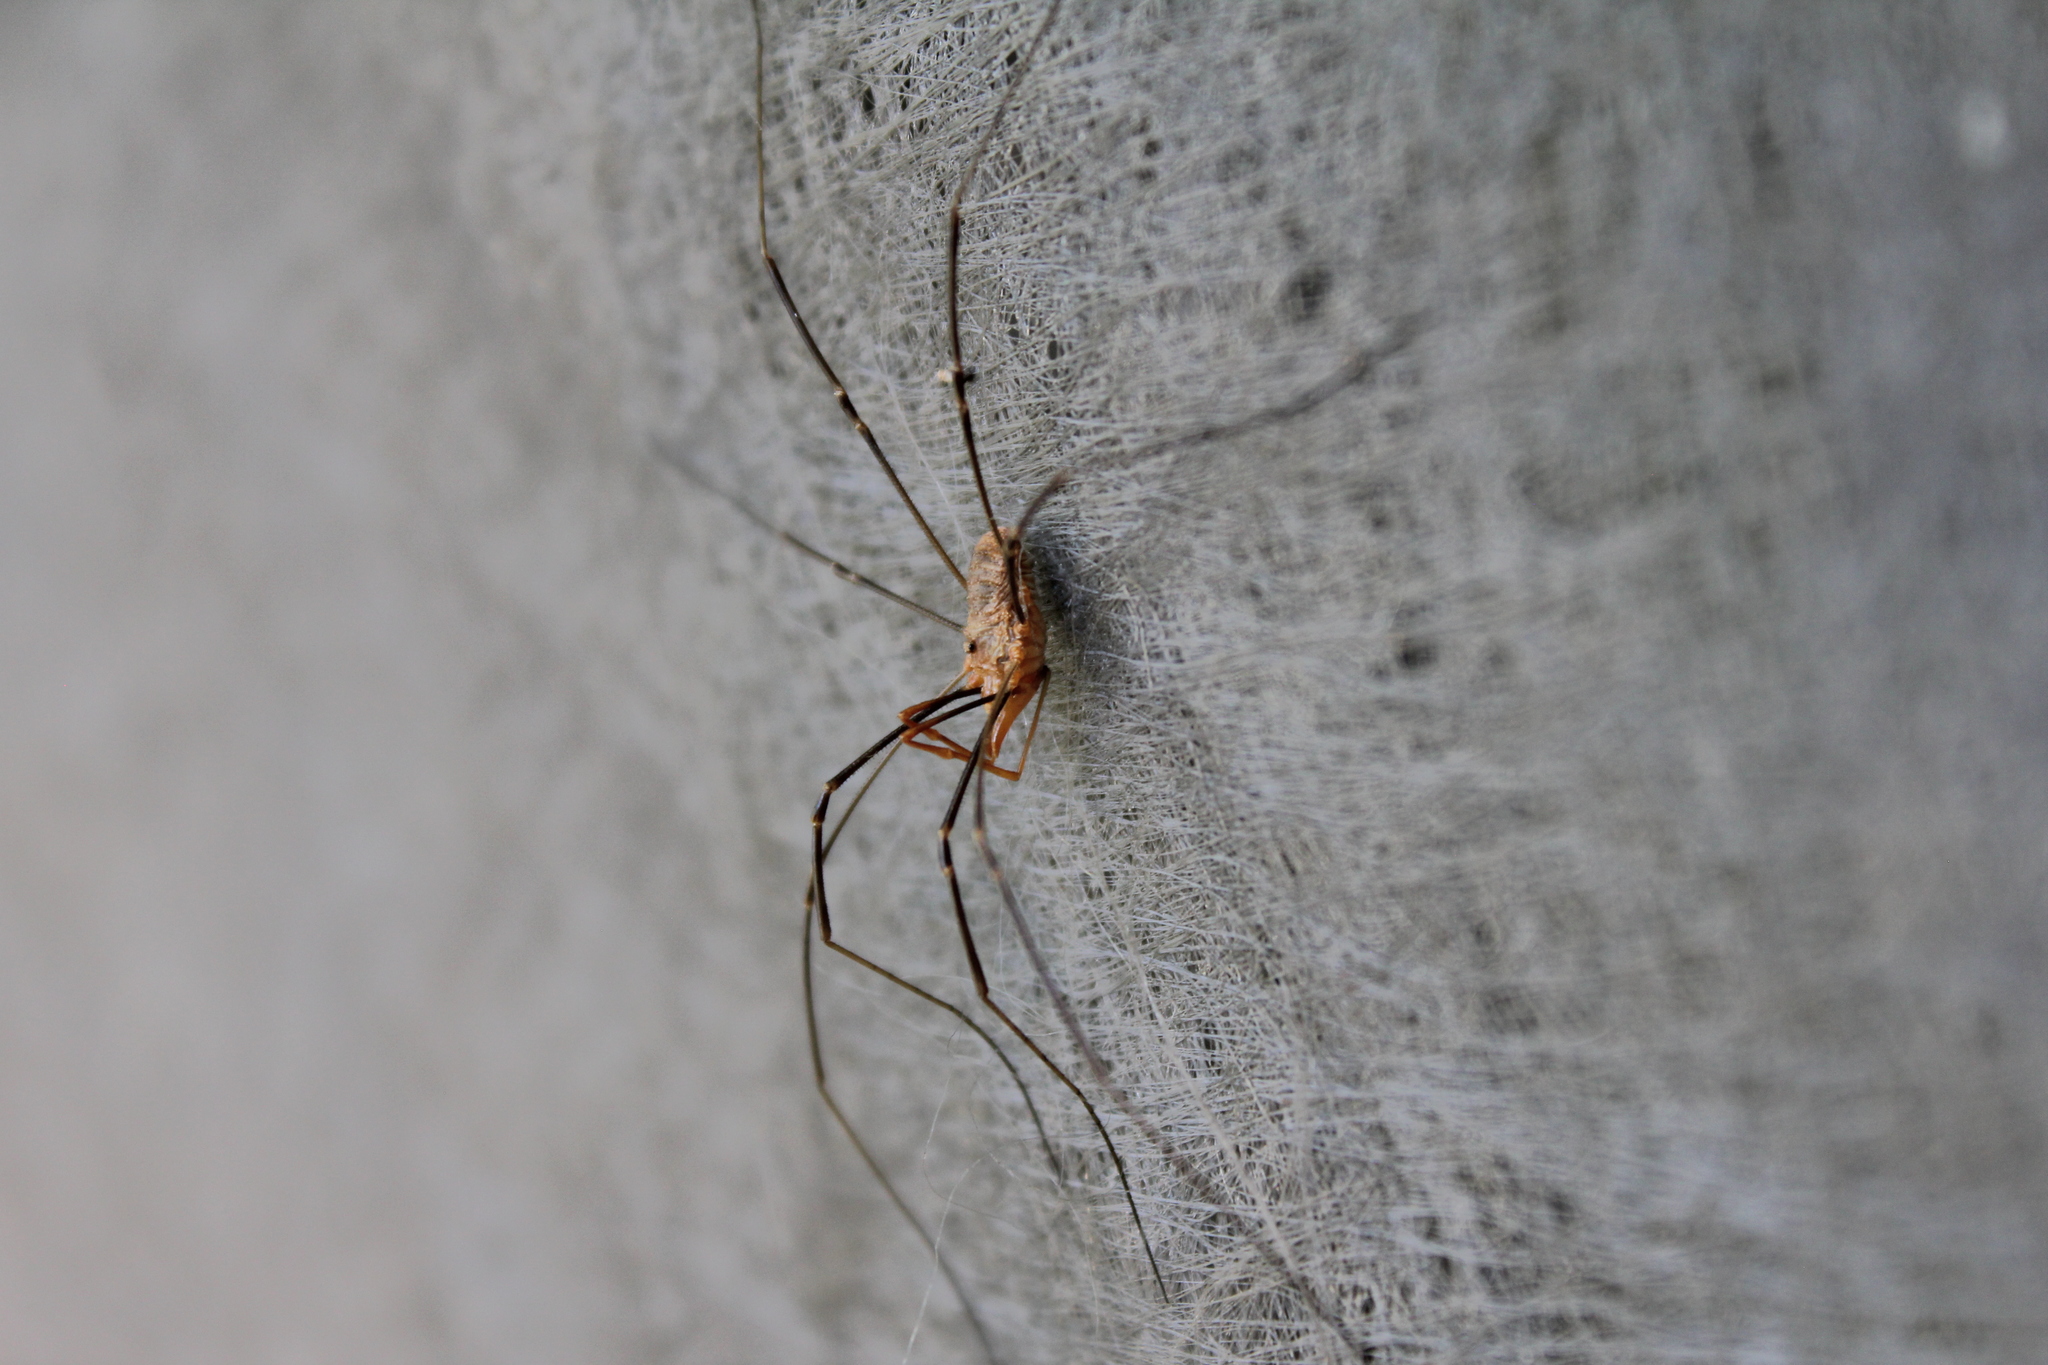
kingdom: Animalia
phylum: Arthropoda
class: Arachnida
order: Opiliones
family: Phalangiidae
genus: Phalangium
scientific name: Phalangium opilio
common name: Daddy longleg
